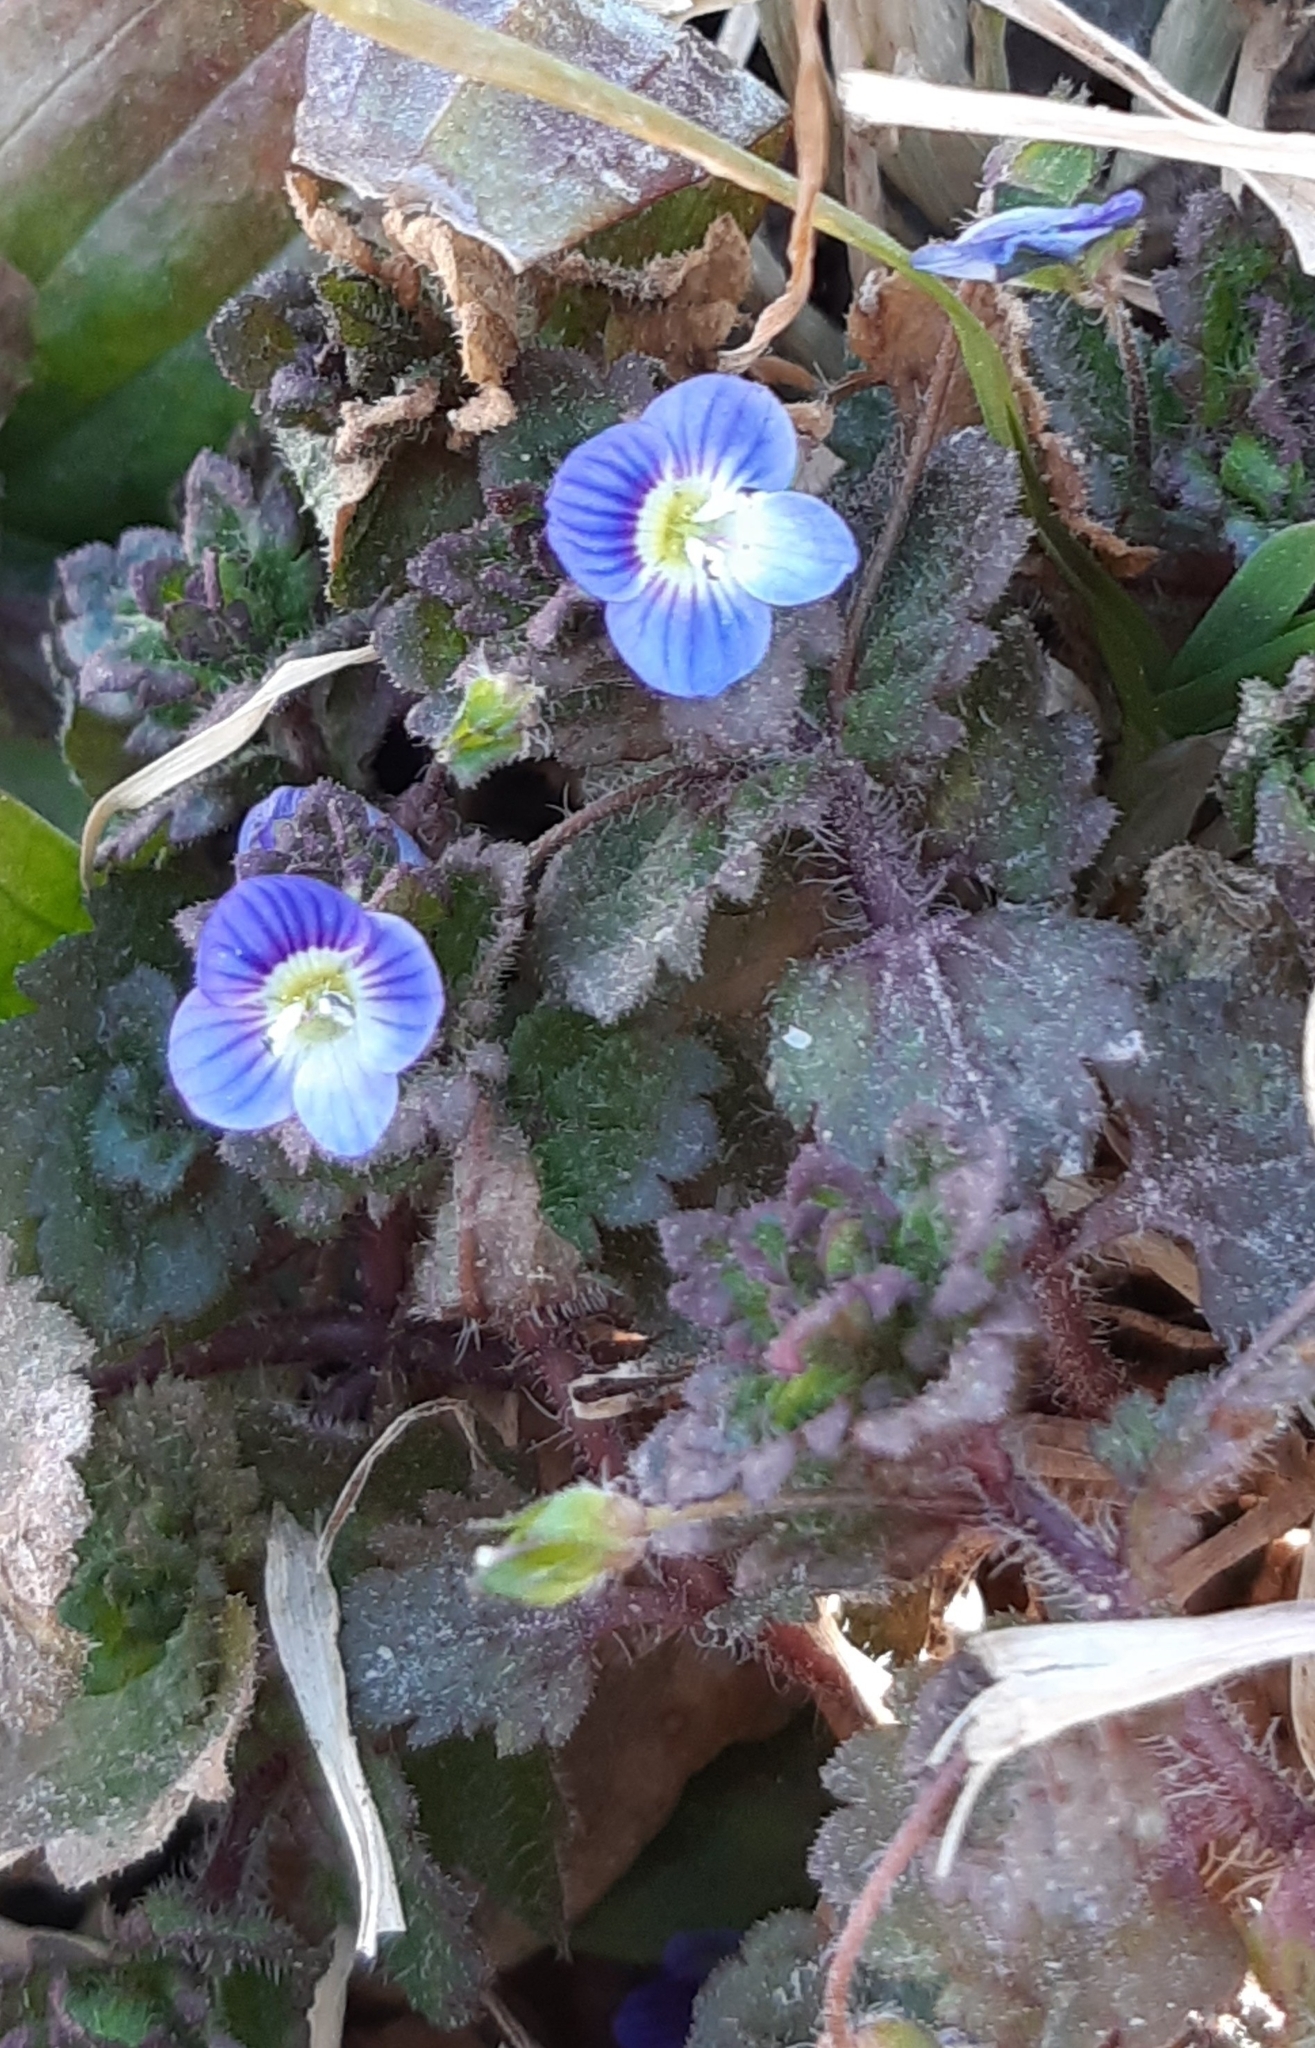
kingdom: Plantae
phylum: Tracheophyta
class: Magnoliopsida
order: Lamiales
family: Plantaginaceae
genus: Veronica
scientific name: Veronica persica
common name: Common field-speedwell
